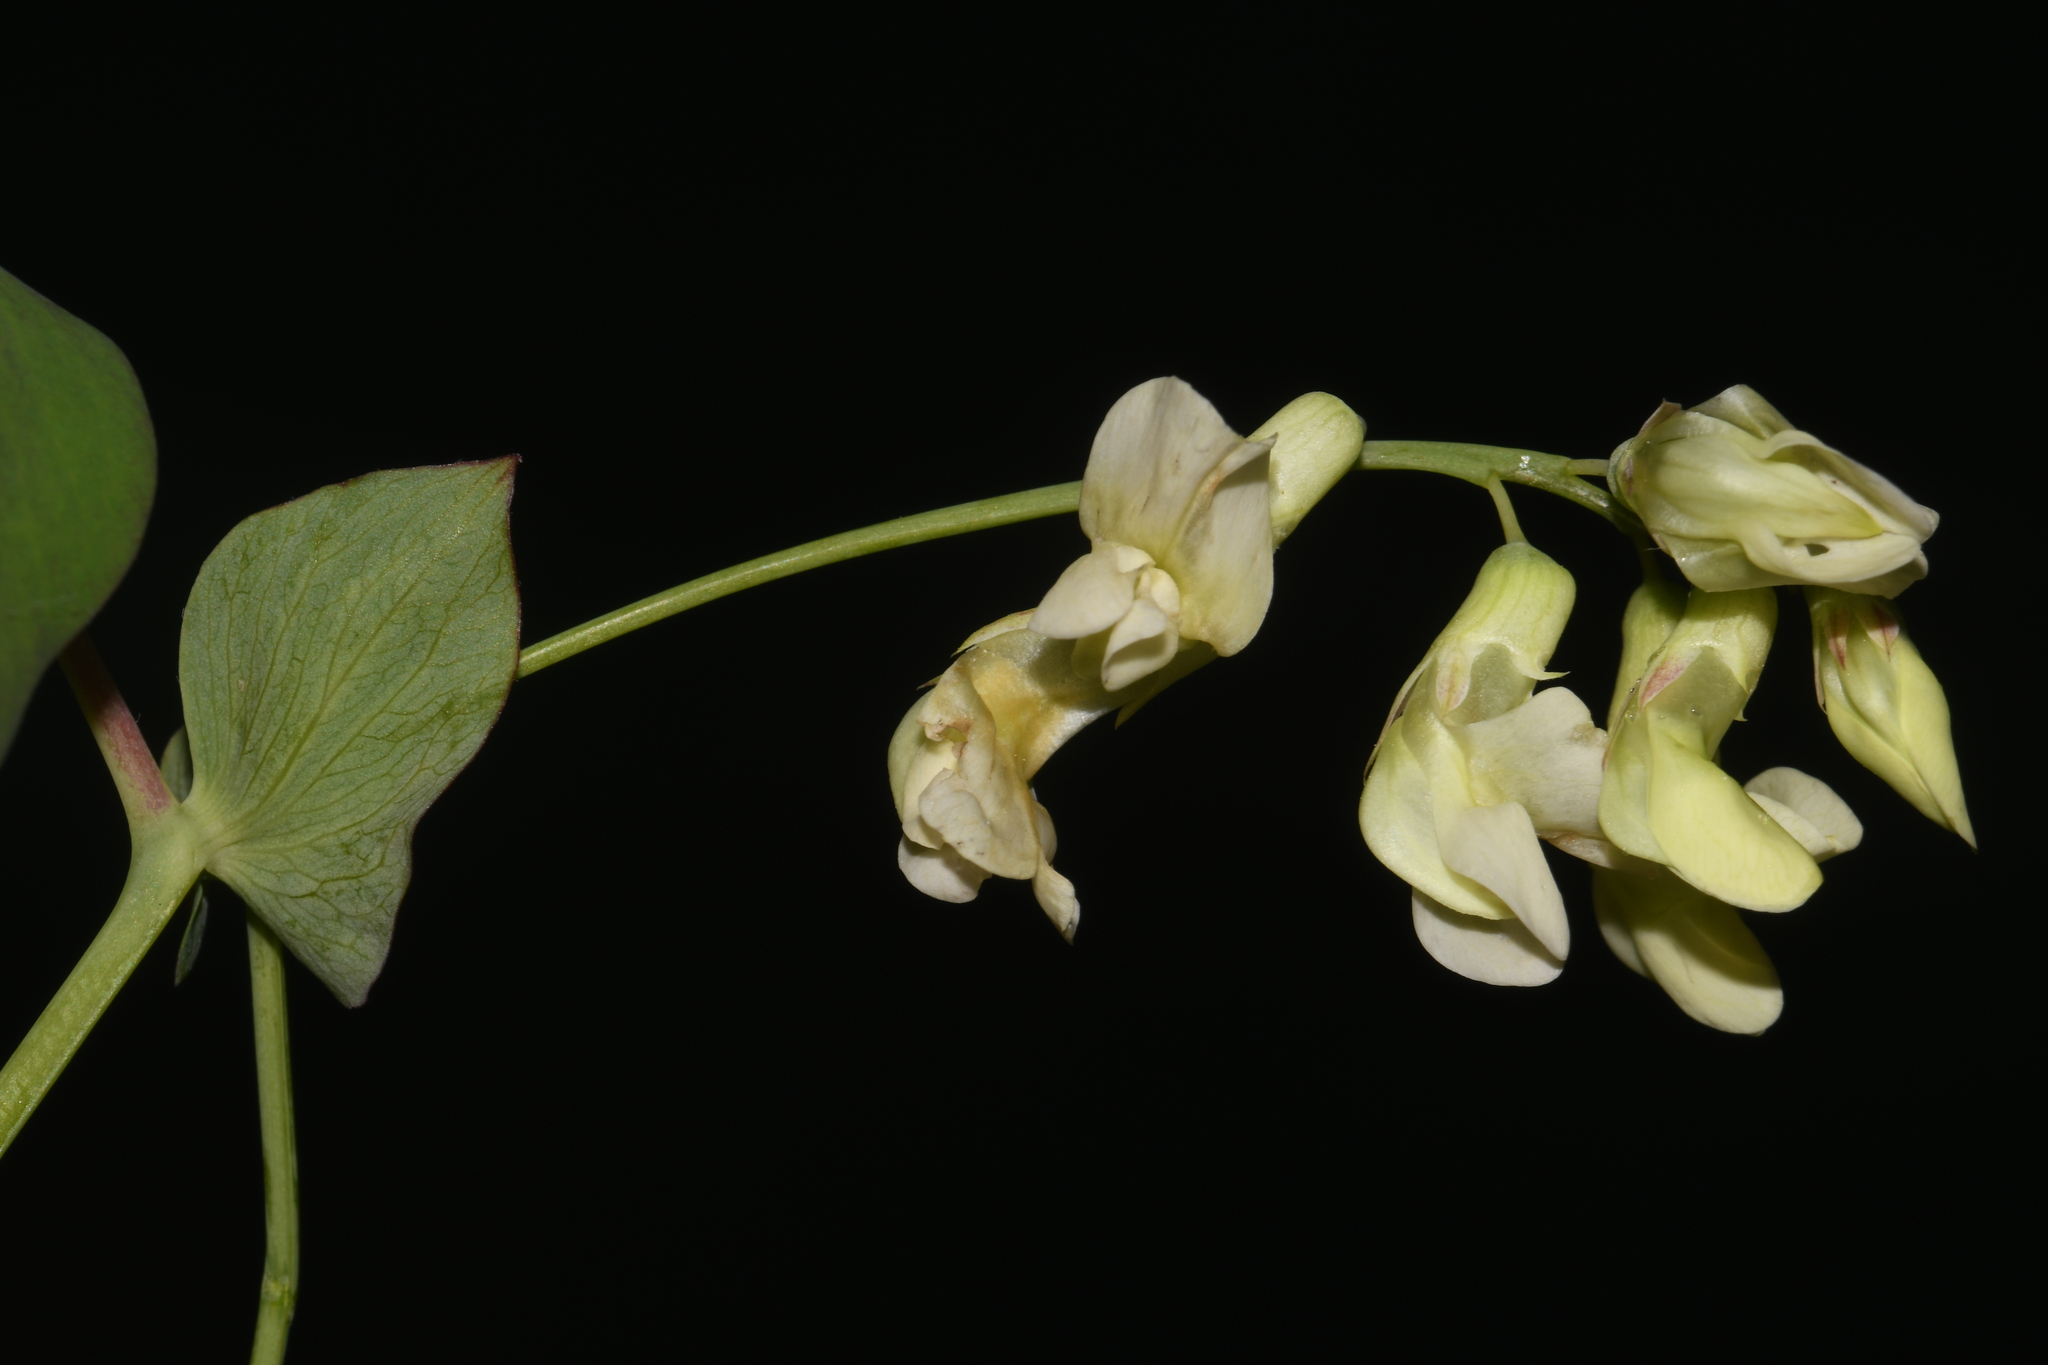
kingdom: Plantae
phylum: Tracheophyta
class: Magnoliopsida
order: Fabales
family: Fabaceae
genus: Lathyrus
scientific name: Lathyrus ochroleucus
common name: Pale vetchling
